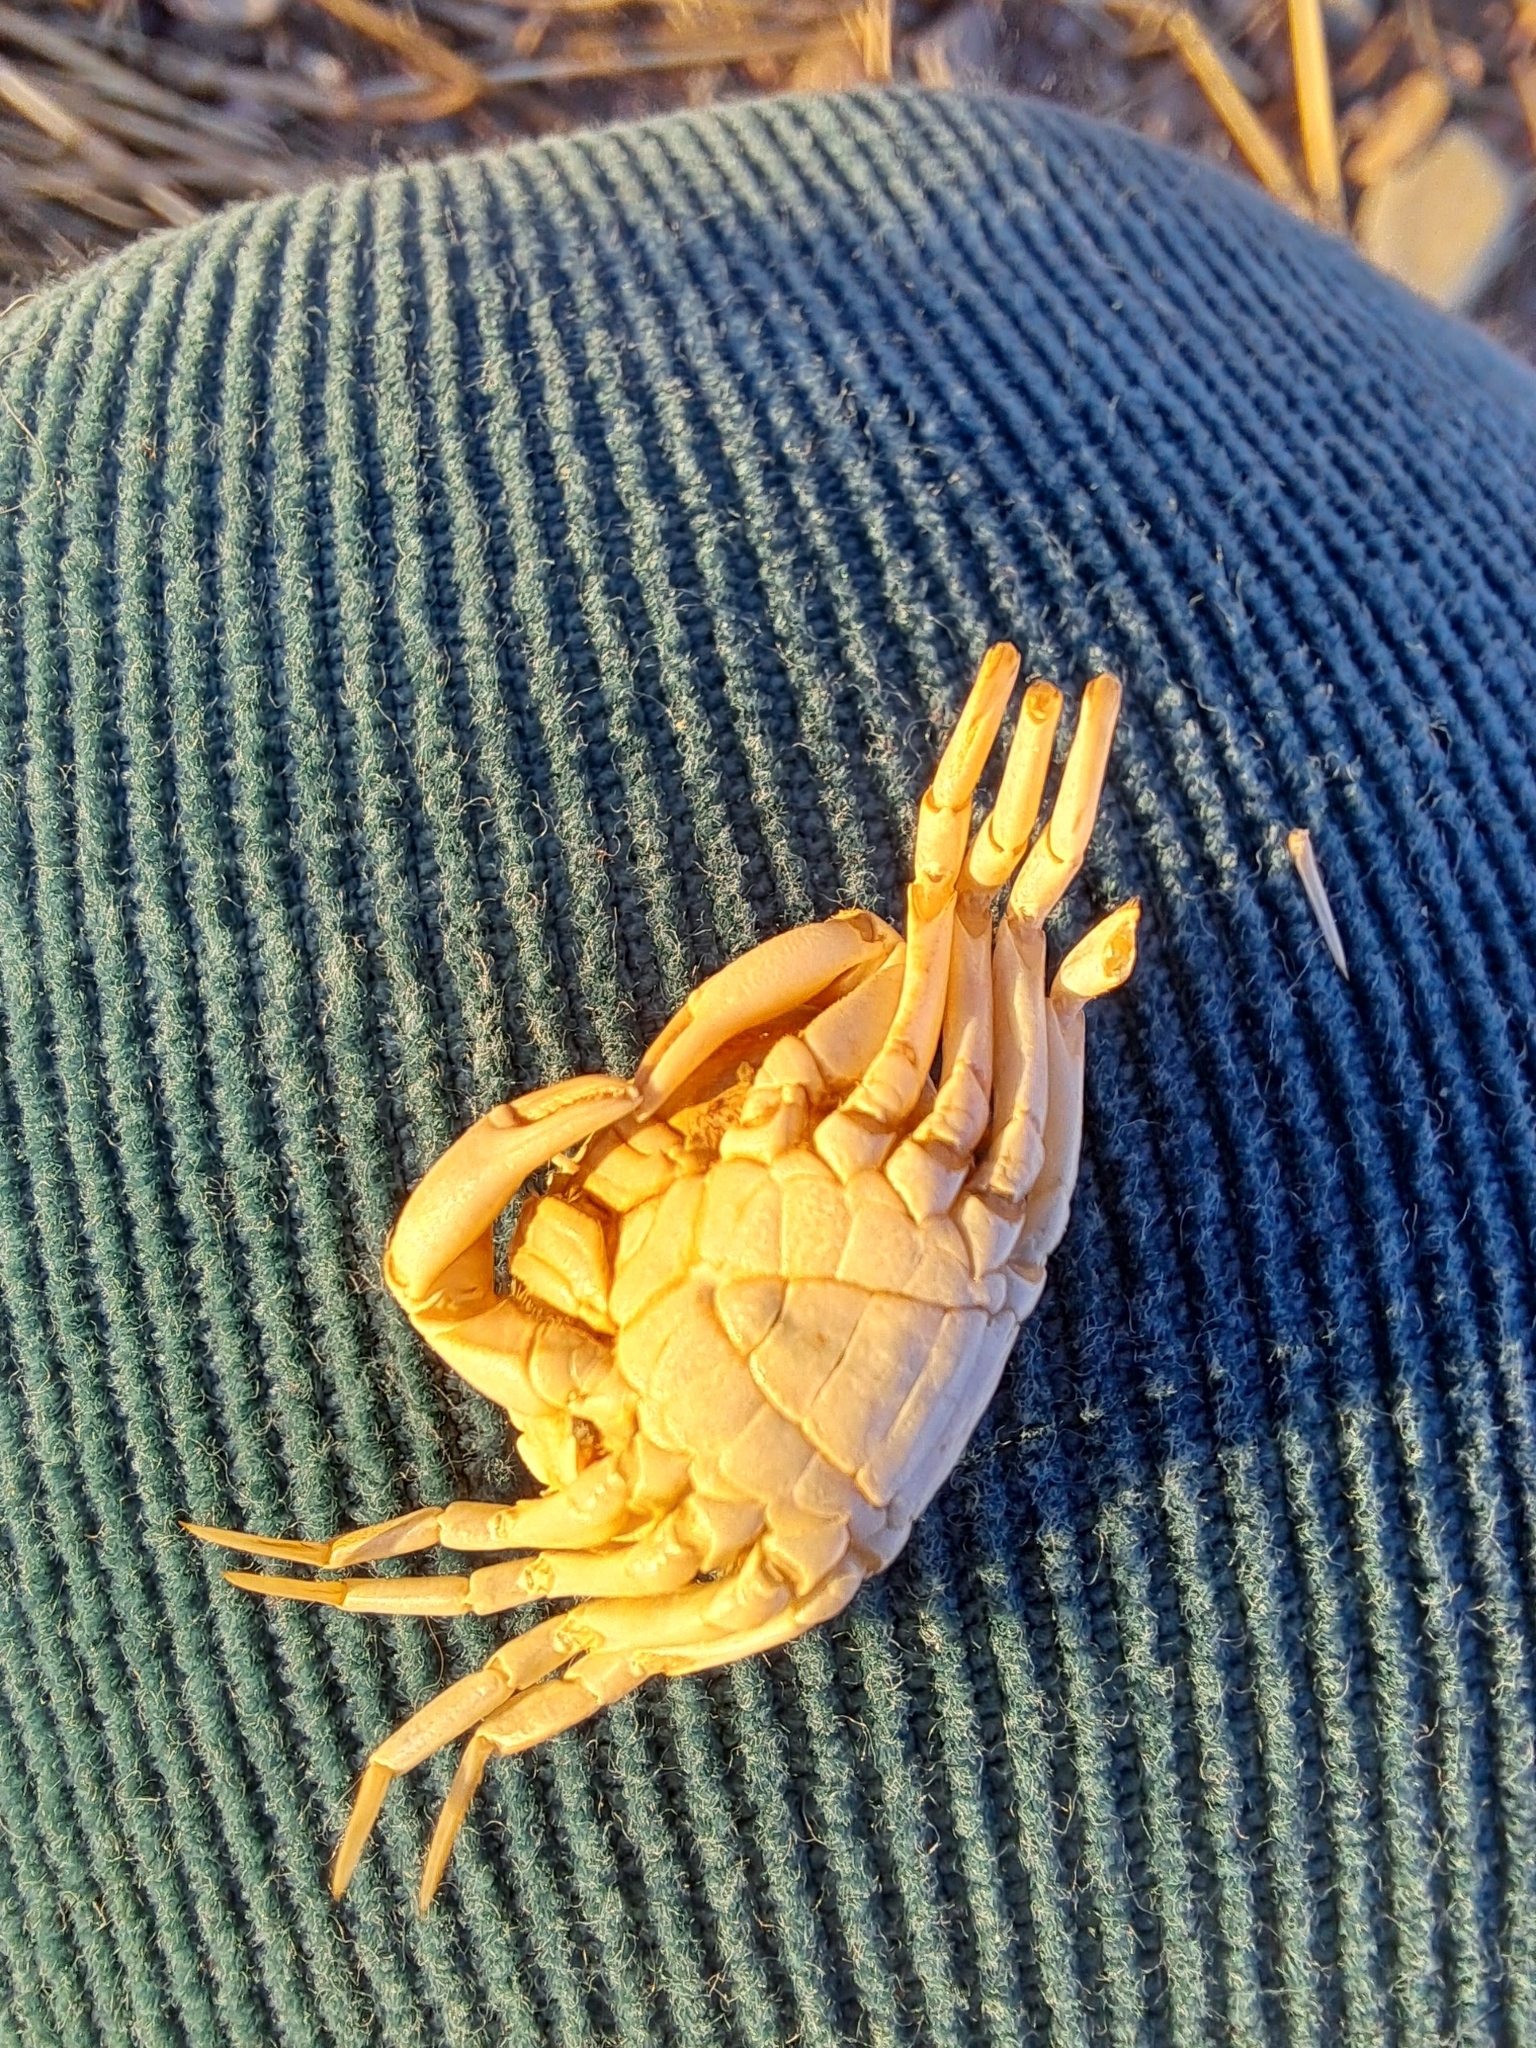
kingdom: Animalia
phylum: Arthropoda
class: Malacostraca
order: Decapoda
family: Carcinidae
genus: Carcinus
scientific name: Carcinus maenas
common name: European green crab
